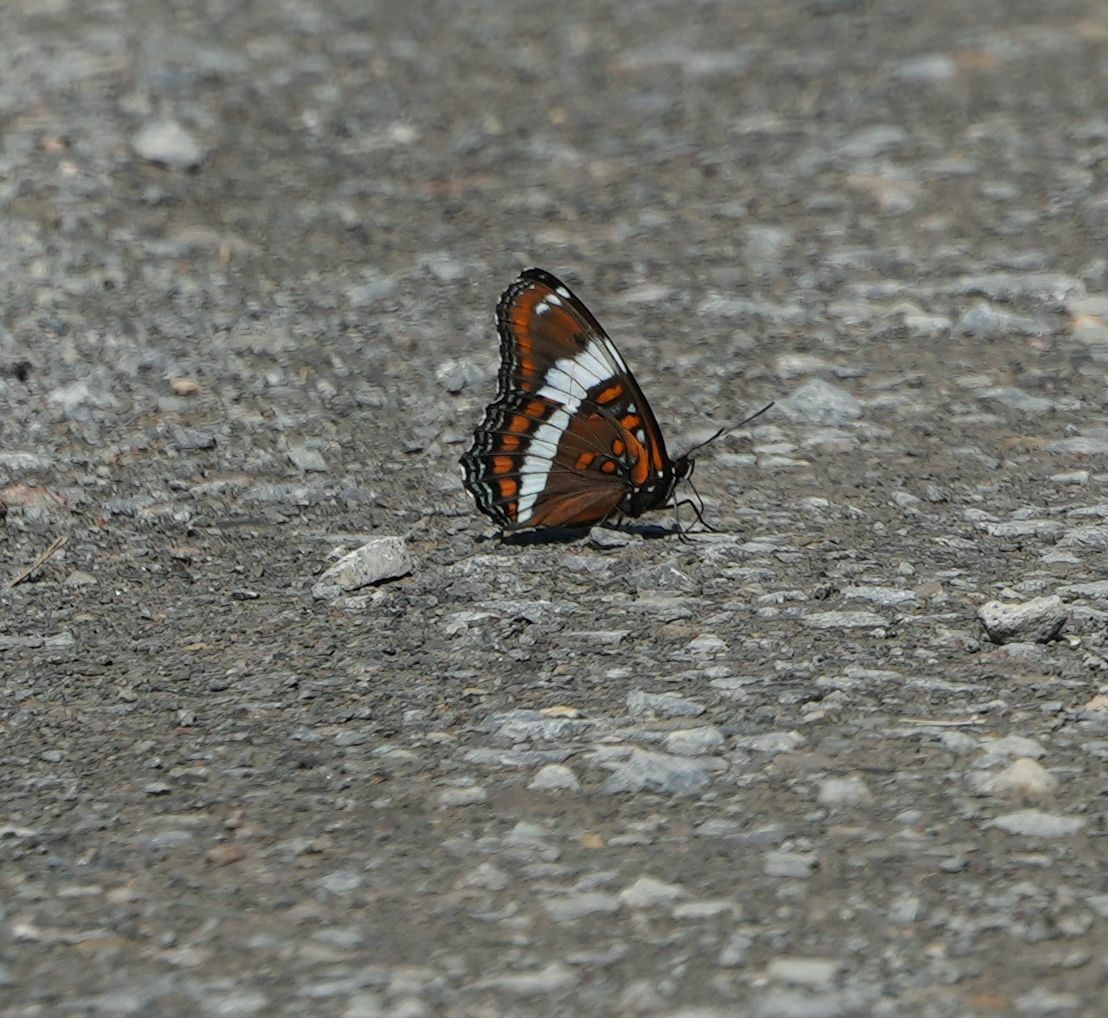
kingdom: Animalia
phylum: Arthropoda
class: Insecta
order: Lepidoptera
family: Nymphalidae
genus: Limenitis
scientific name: Limenitis arthemis
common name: Red-spotted admiral
